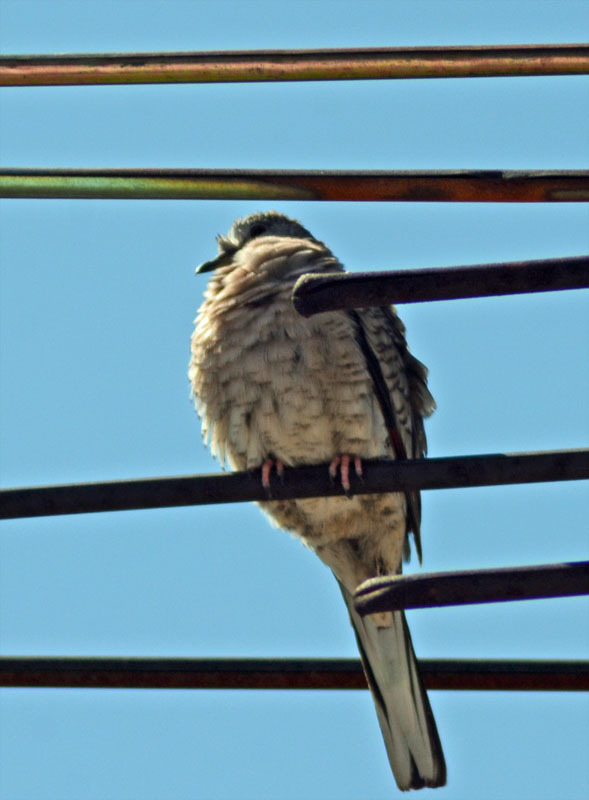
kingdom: Animalia
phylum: Chordata
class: Aves
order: Columbiformes
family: Columbidae
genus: Columbina
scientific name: Columbina inca
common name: Inca dove
